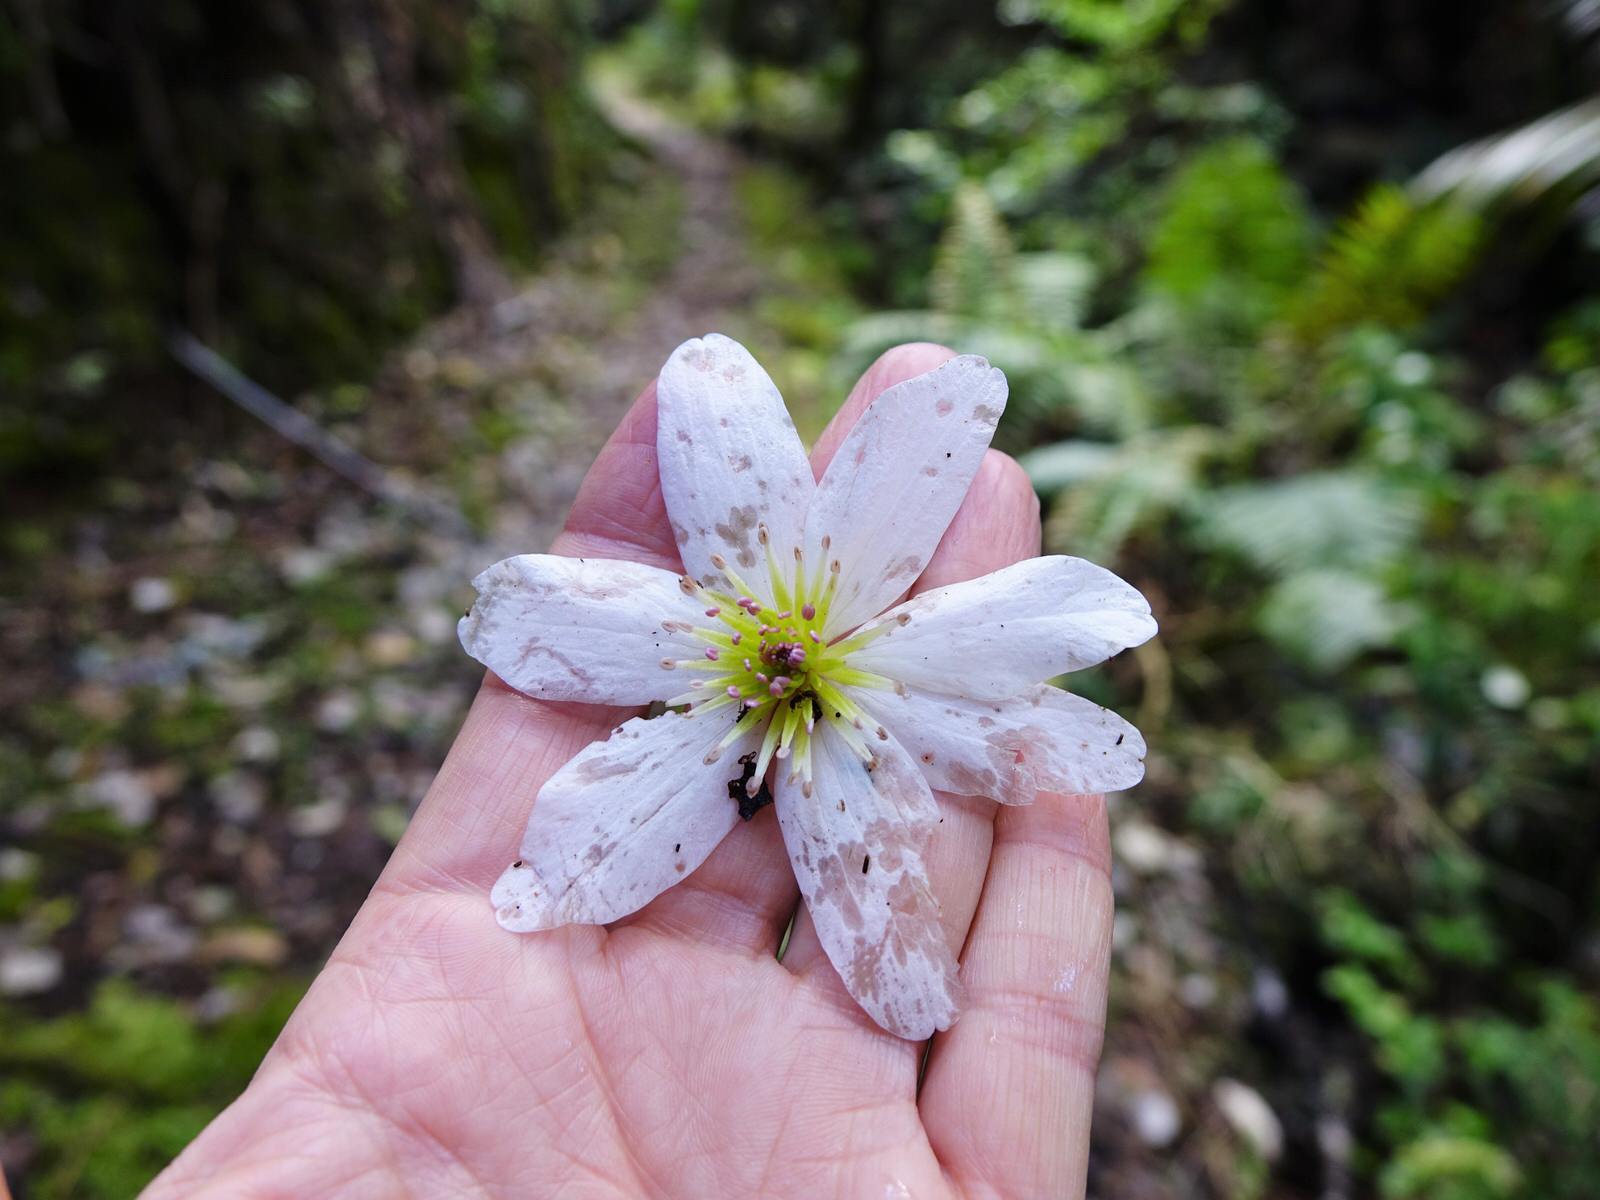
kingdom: Plantae
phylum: Tracheophyta
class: Magnoliopsida
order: Ranunculales
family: Ranunculaceae
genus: Clematis
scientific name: Clematis paniculata
